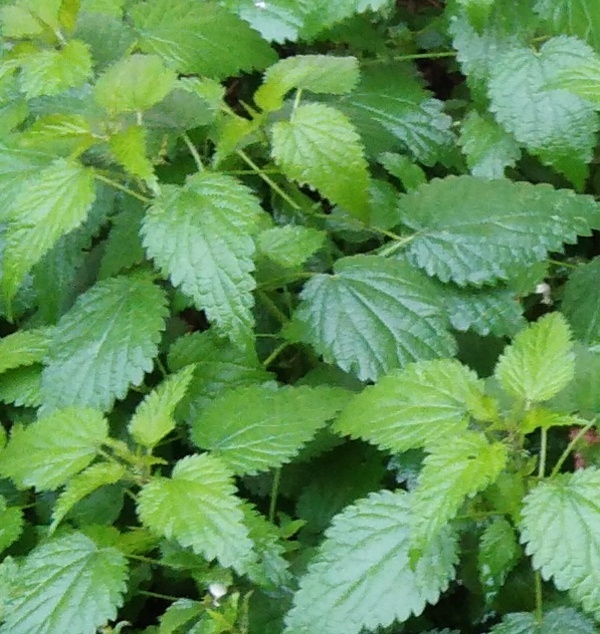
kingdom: Plantae
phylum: Tracheophyta
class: Magnoliopsida
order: Rosales
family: Urticaceae
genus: Urtica
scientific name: Urtica dioica
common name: Common nettle
